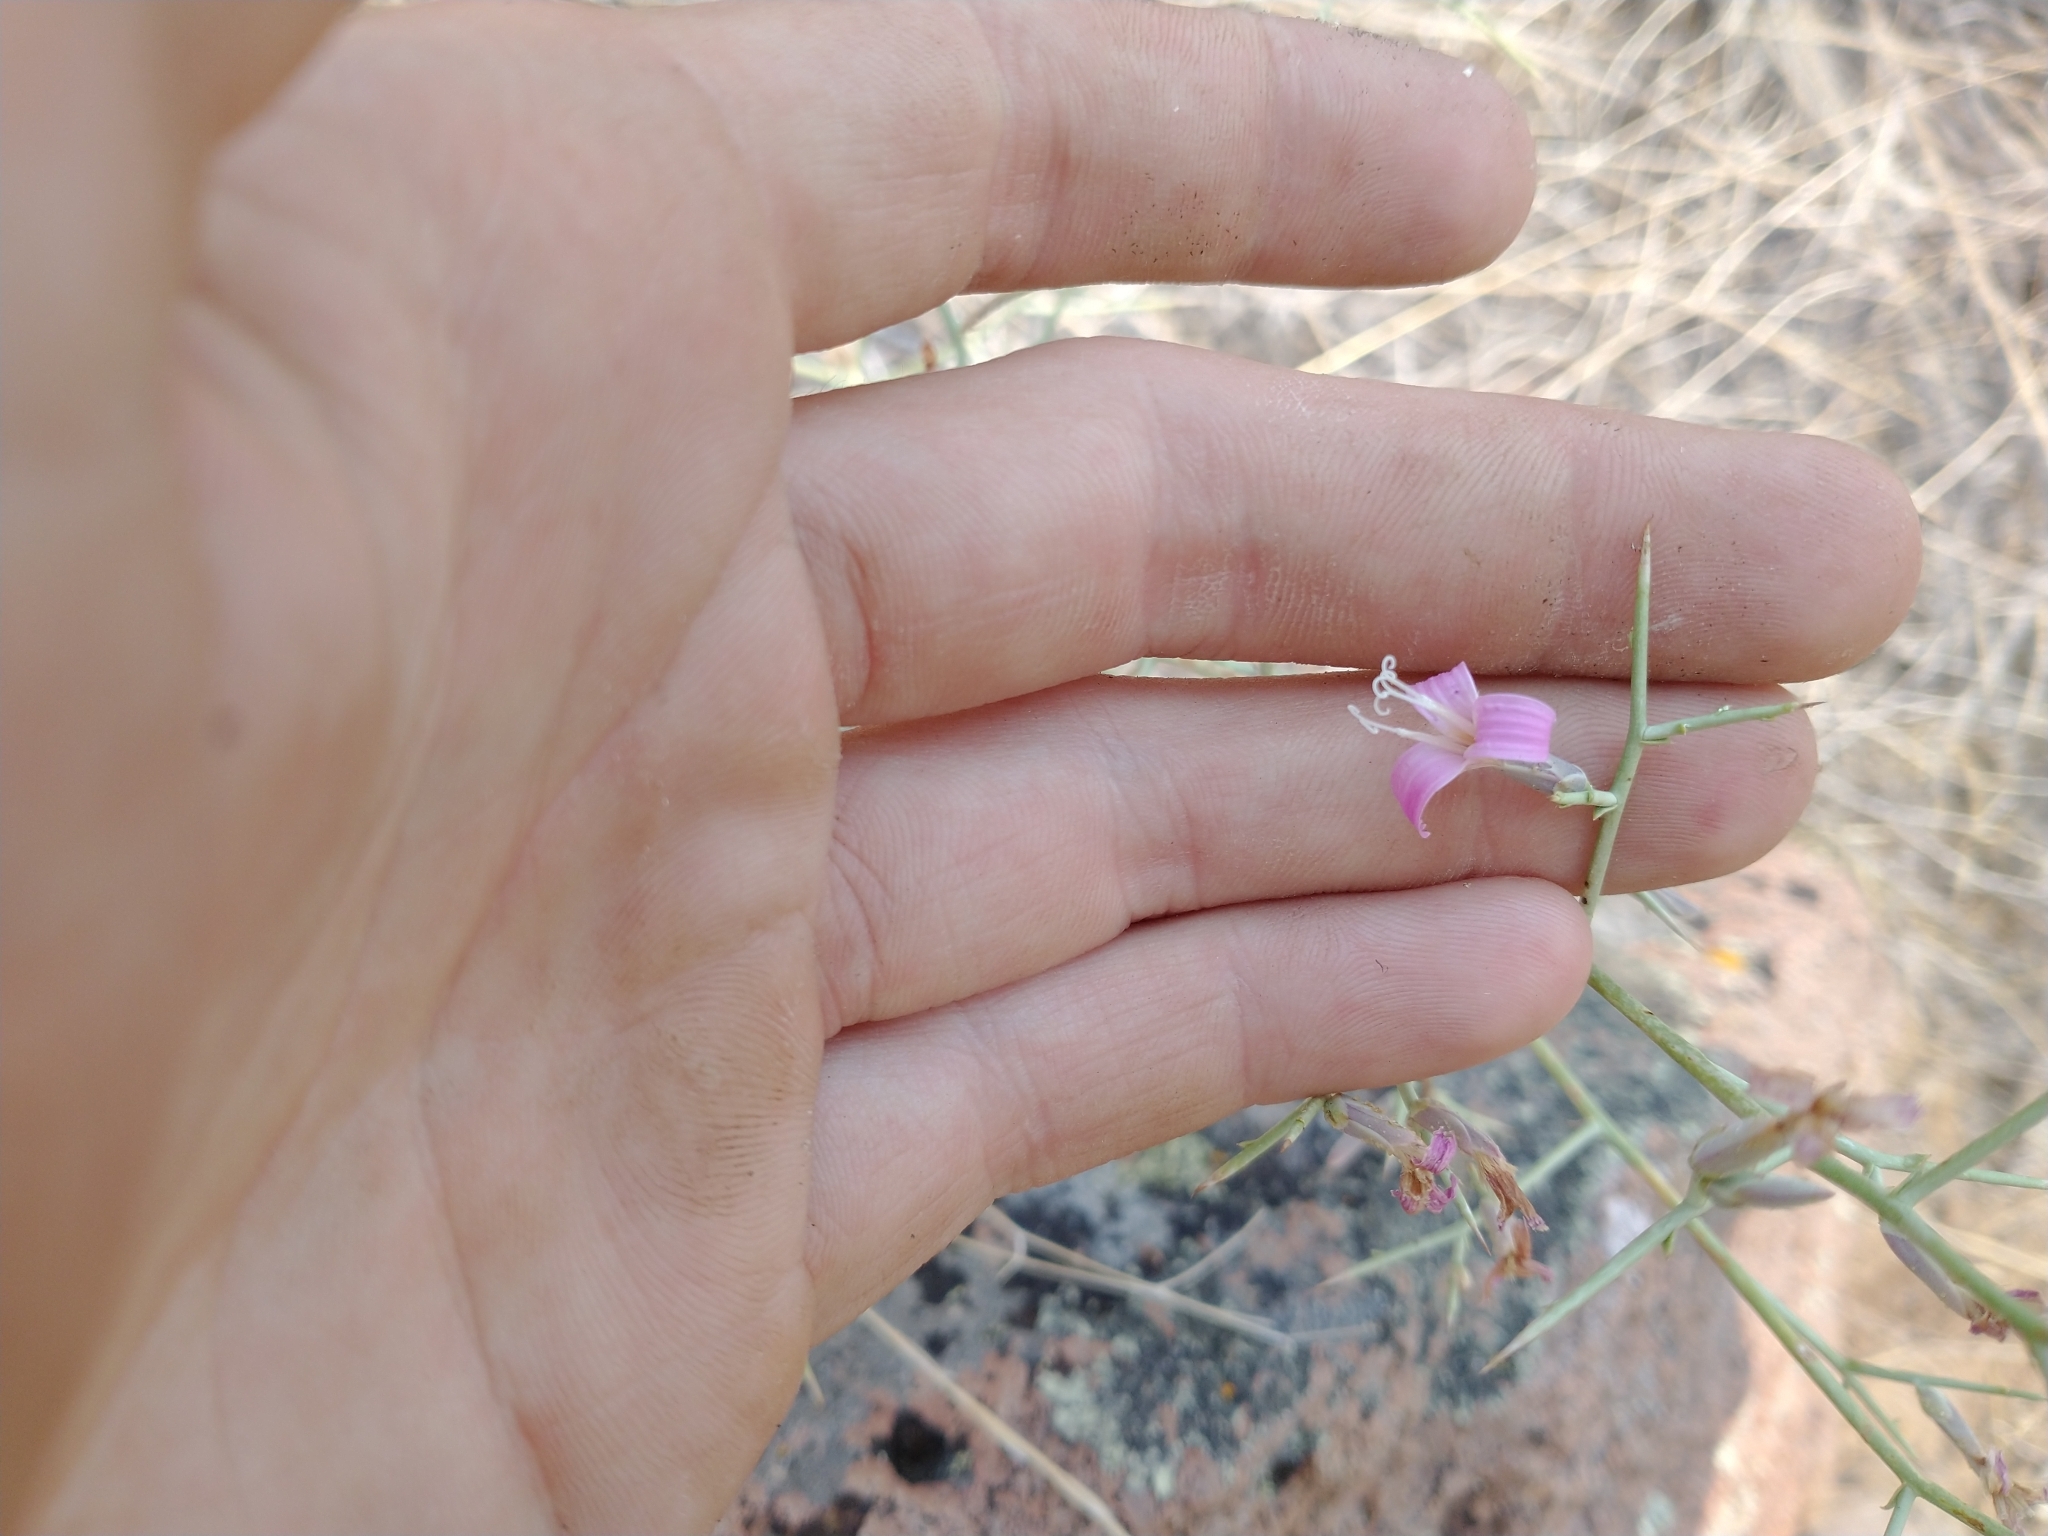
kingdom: Plantae
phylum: Tracheophyta
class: Magnoliopsida
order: Asterales
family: Asteraceae
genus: Pleiacanthus
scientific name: Pleiacanthus spinosus
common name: Thorny skeleton-weed
